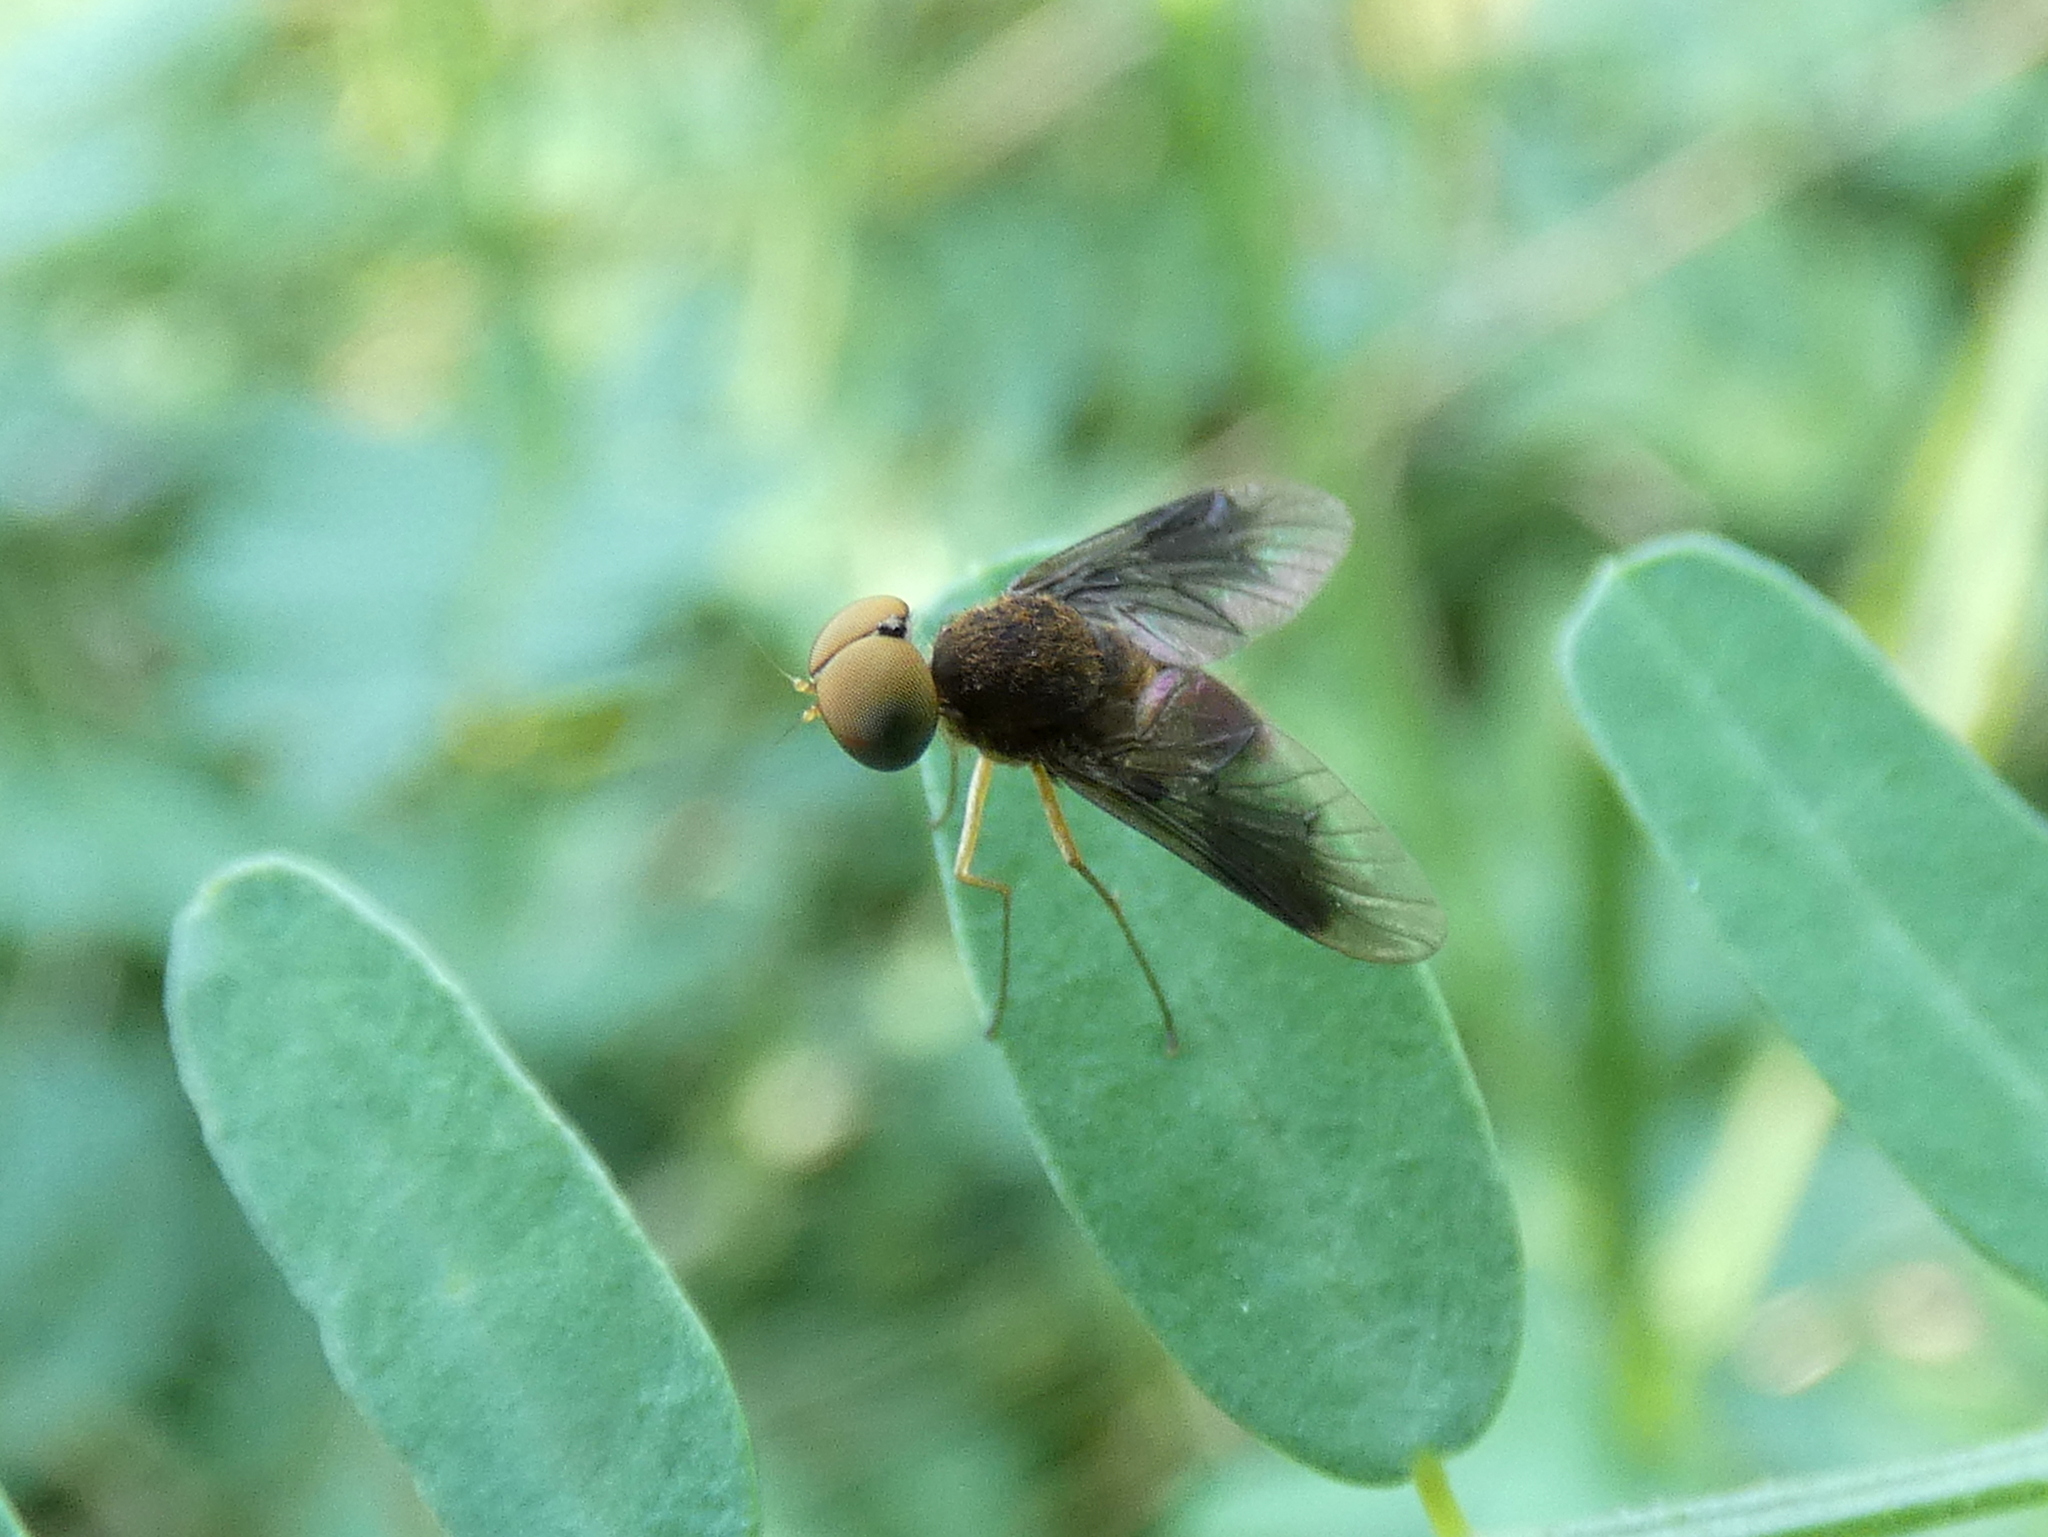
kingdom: Animalia
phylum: Arthropoda
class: Insecta
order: Diptera
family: Rhagionidae
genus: Chrysopilus
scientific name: Chrysopilus quadratus
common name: Quadrate snipe fly
